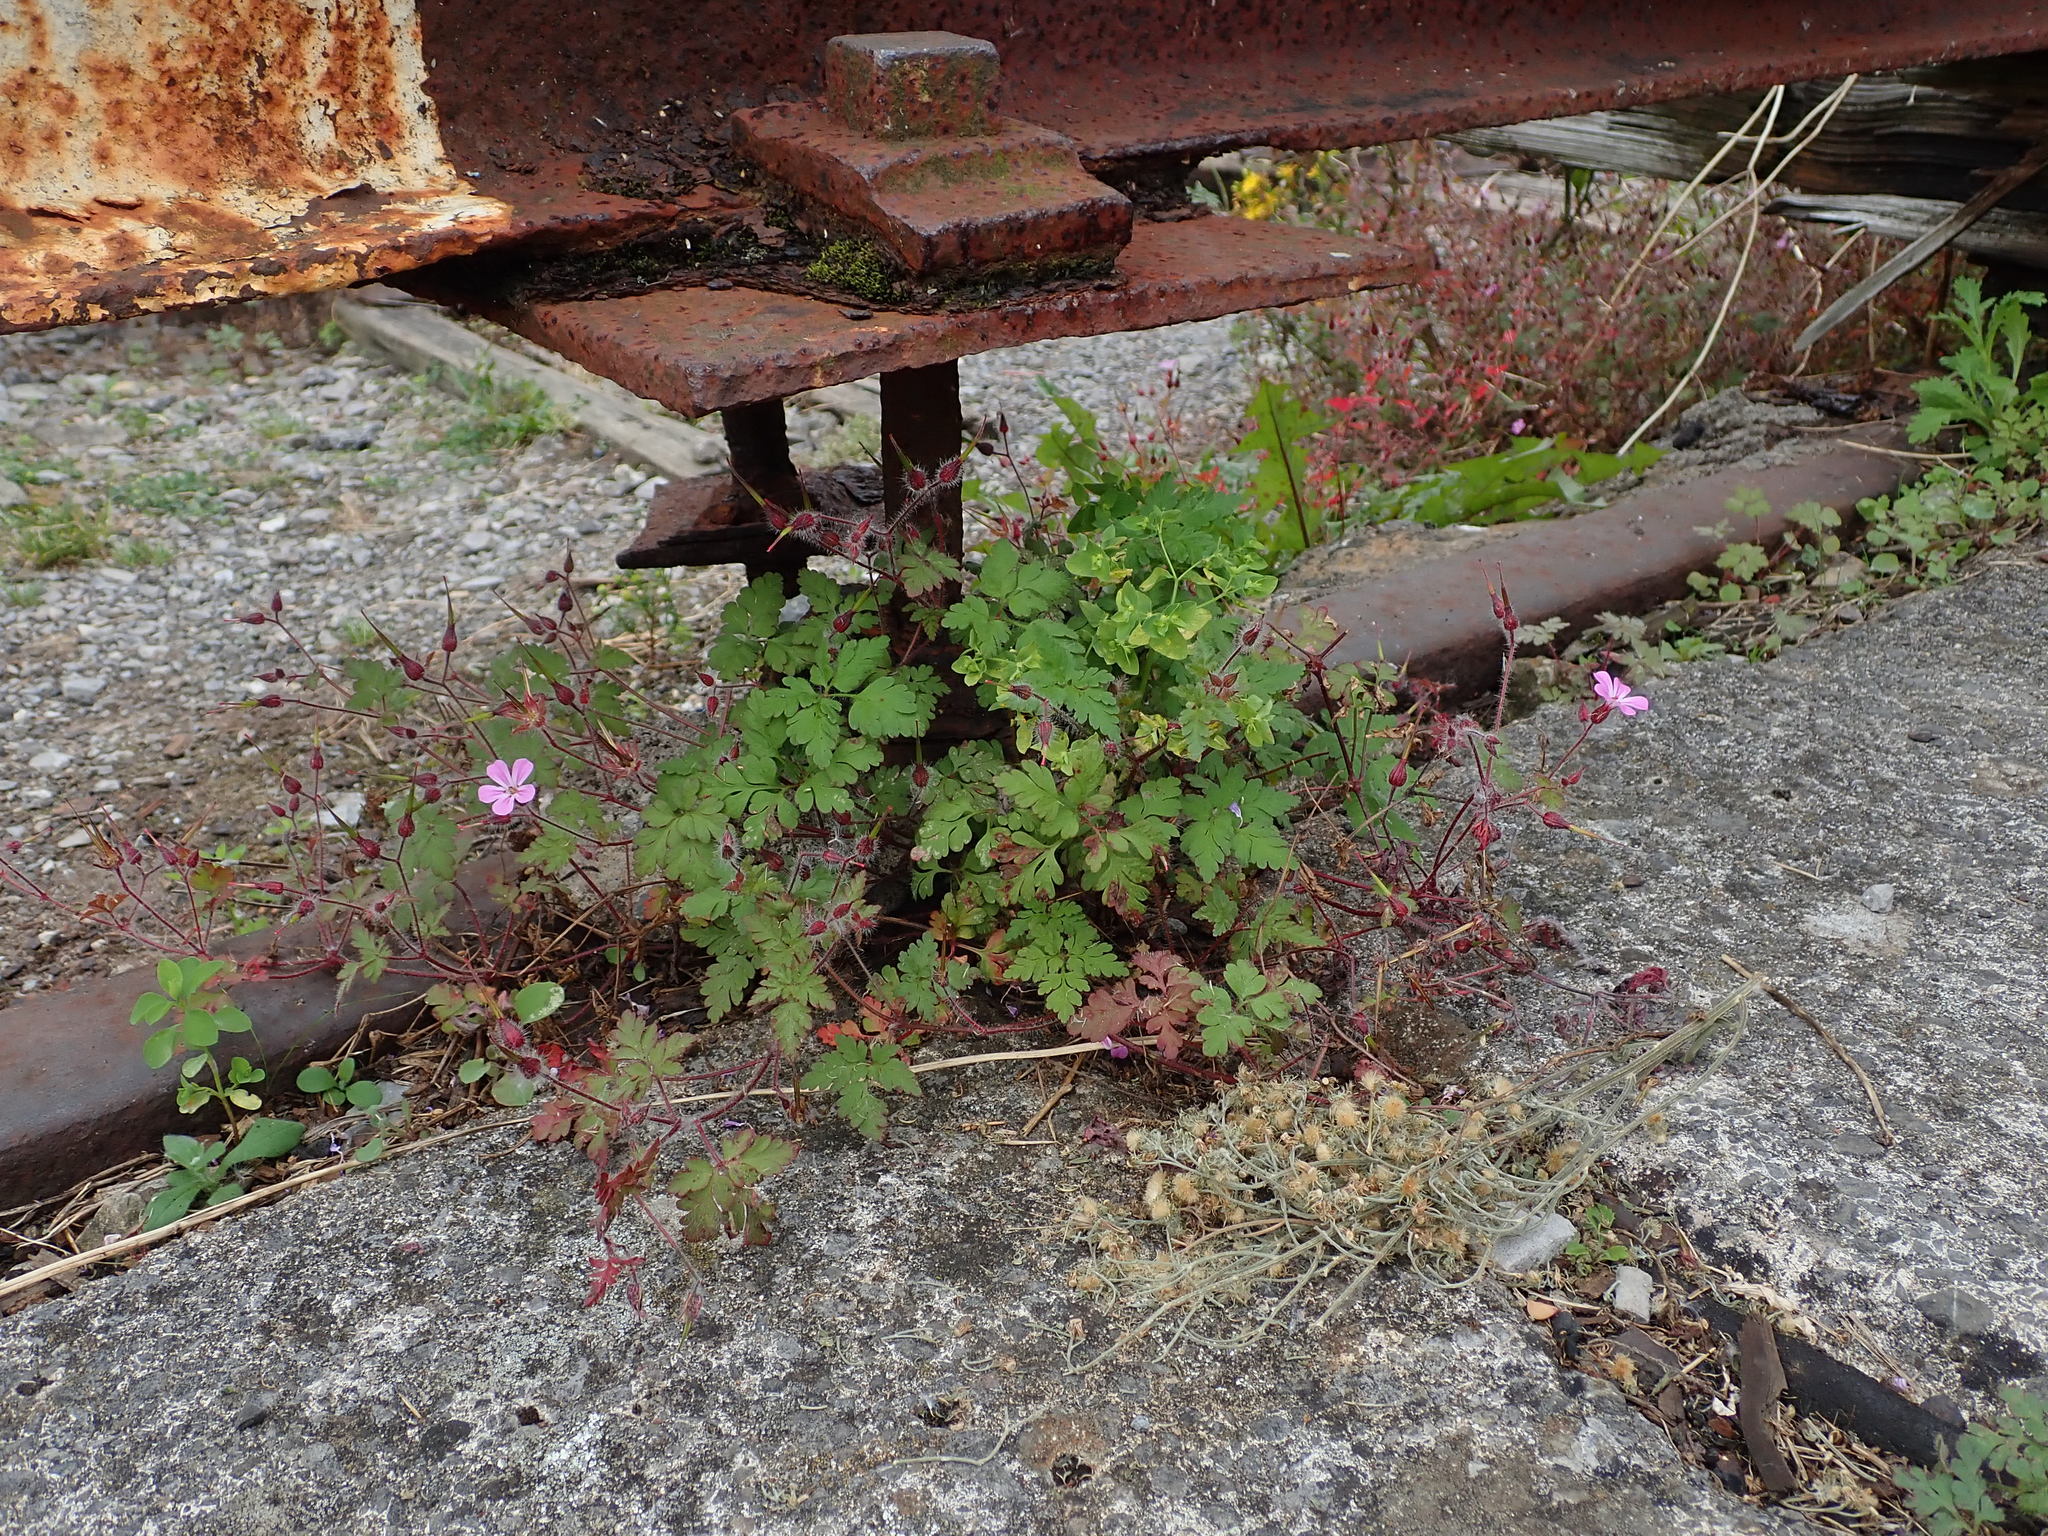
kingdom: Plantae
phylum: Tracheophyta
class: Magnoliopsida
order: Geraniales
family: Geraniaceae
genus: Geranium
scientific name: Geranium robertianum
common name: Herb-robert
